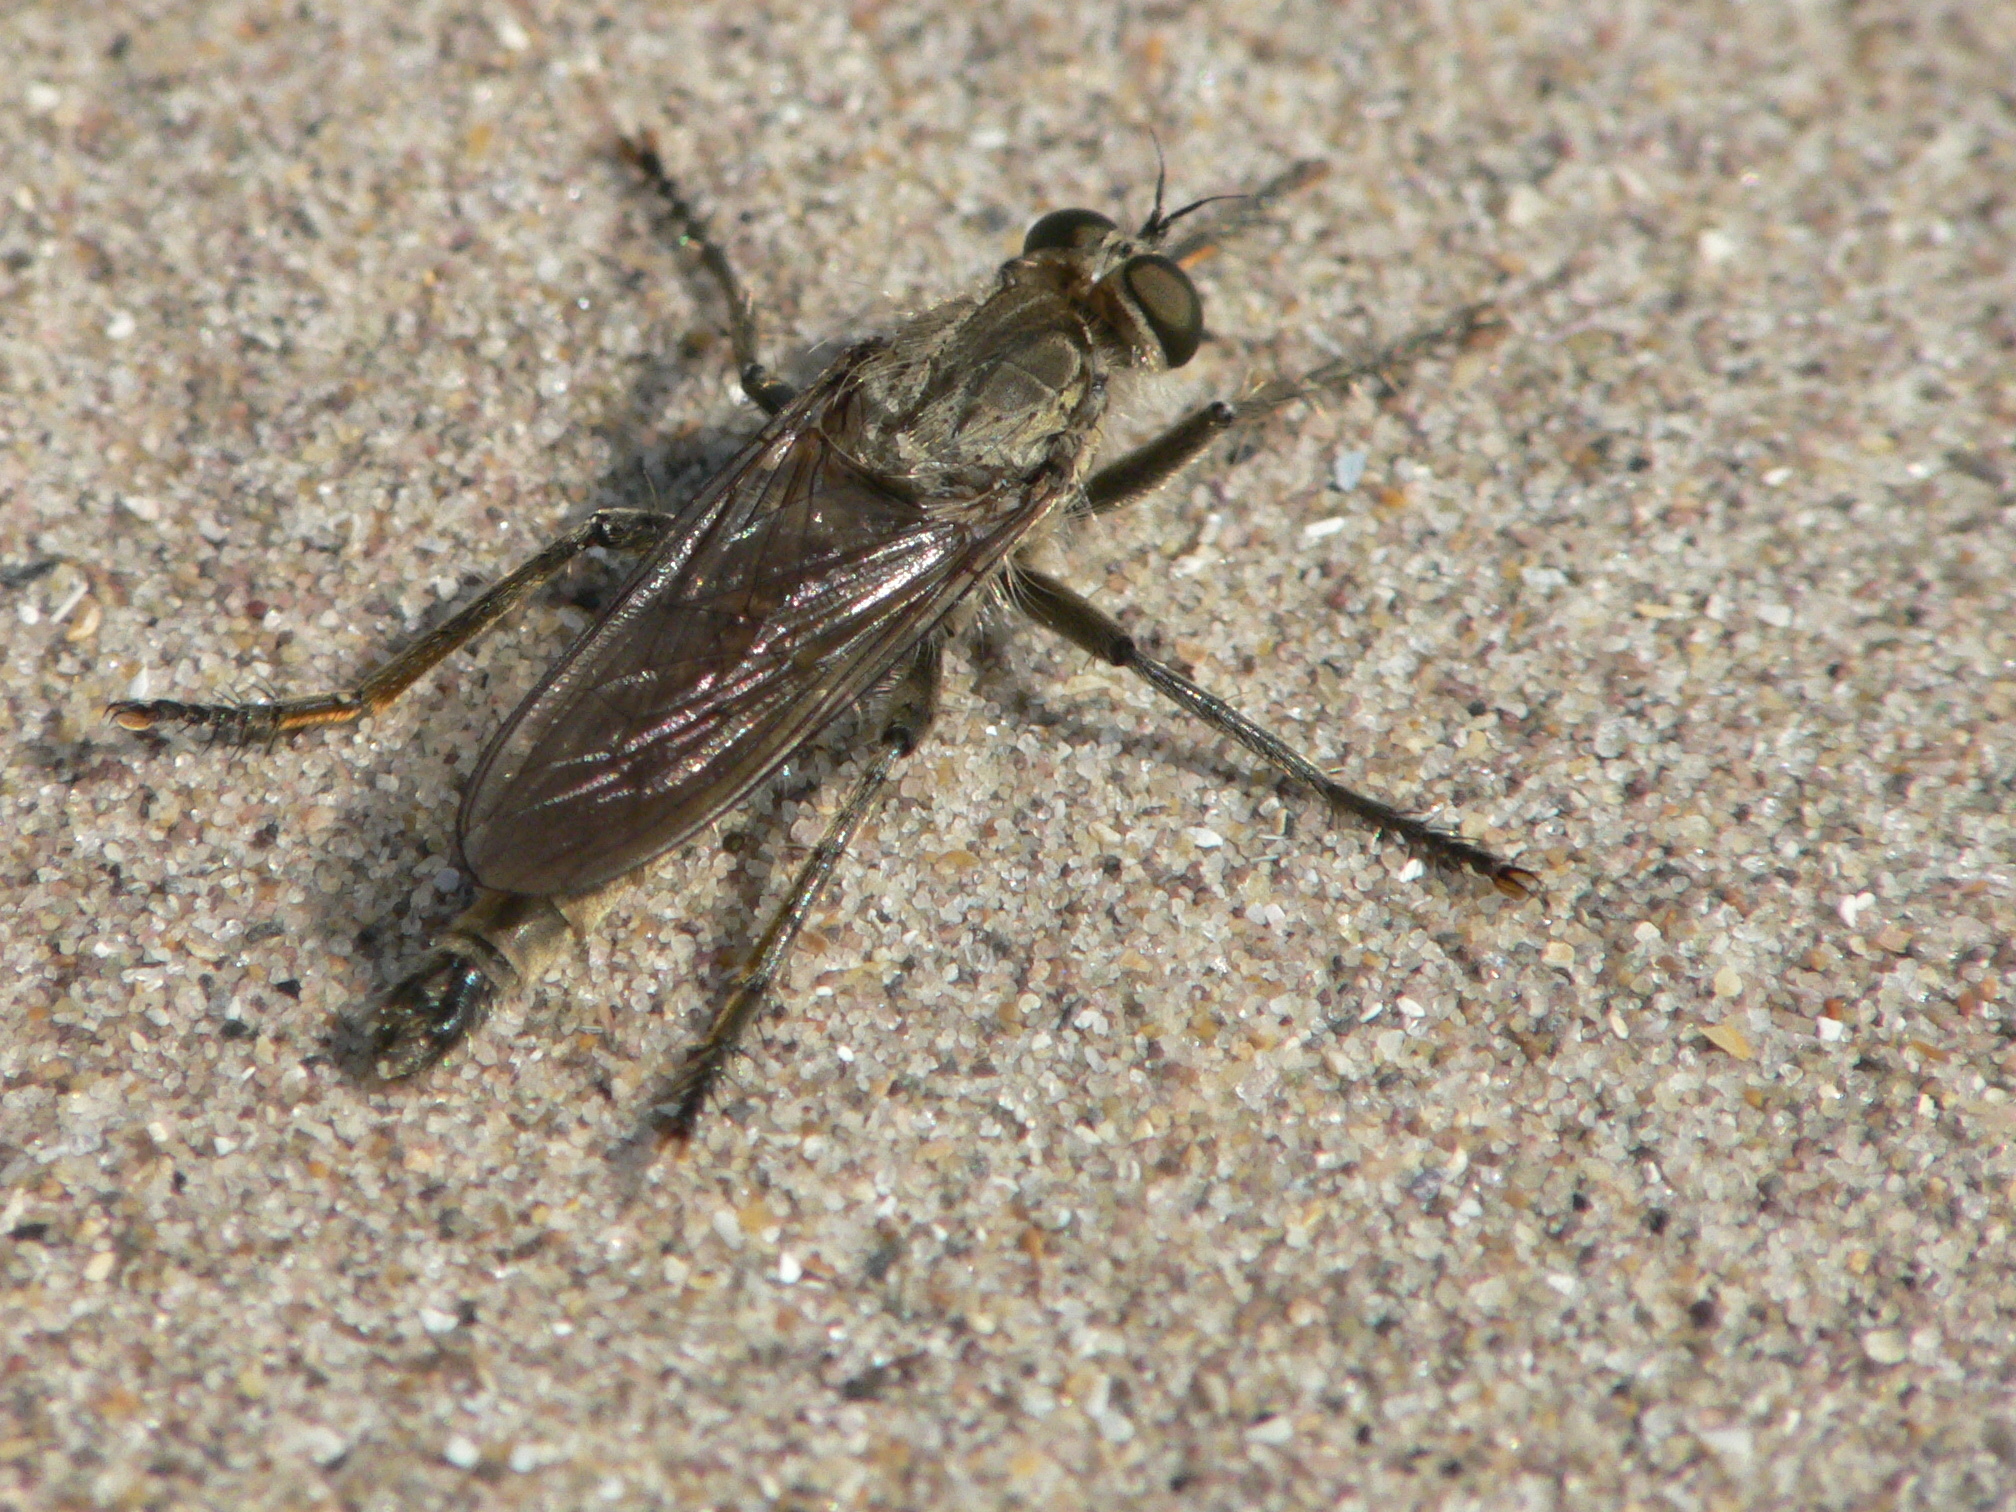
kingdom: Animalia
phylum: Arthropoda
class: Insecta
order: Diptera
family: Asilidae
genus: Philonicus
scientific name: Philonicus albiceps
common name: Dune robberfly
